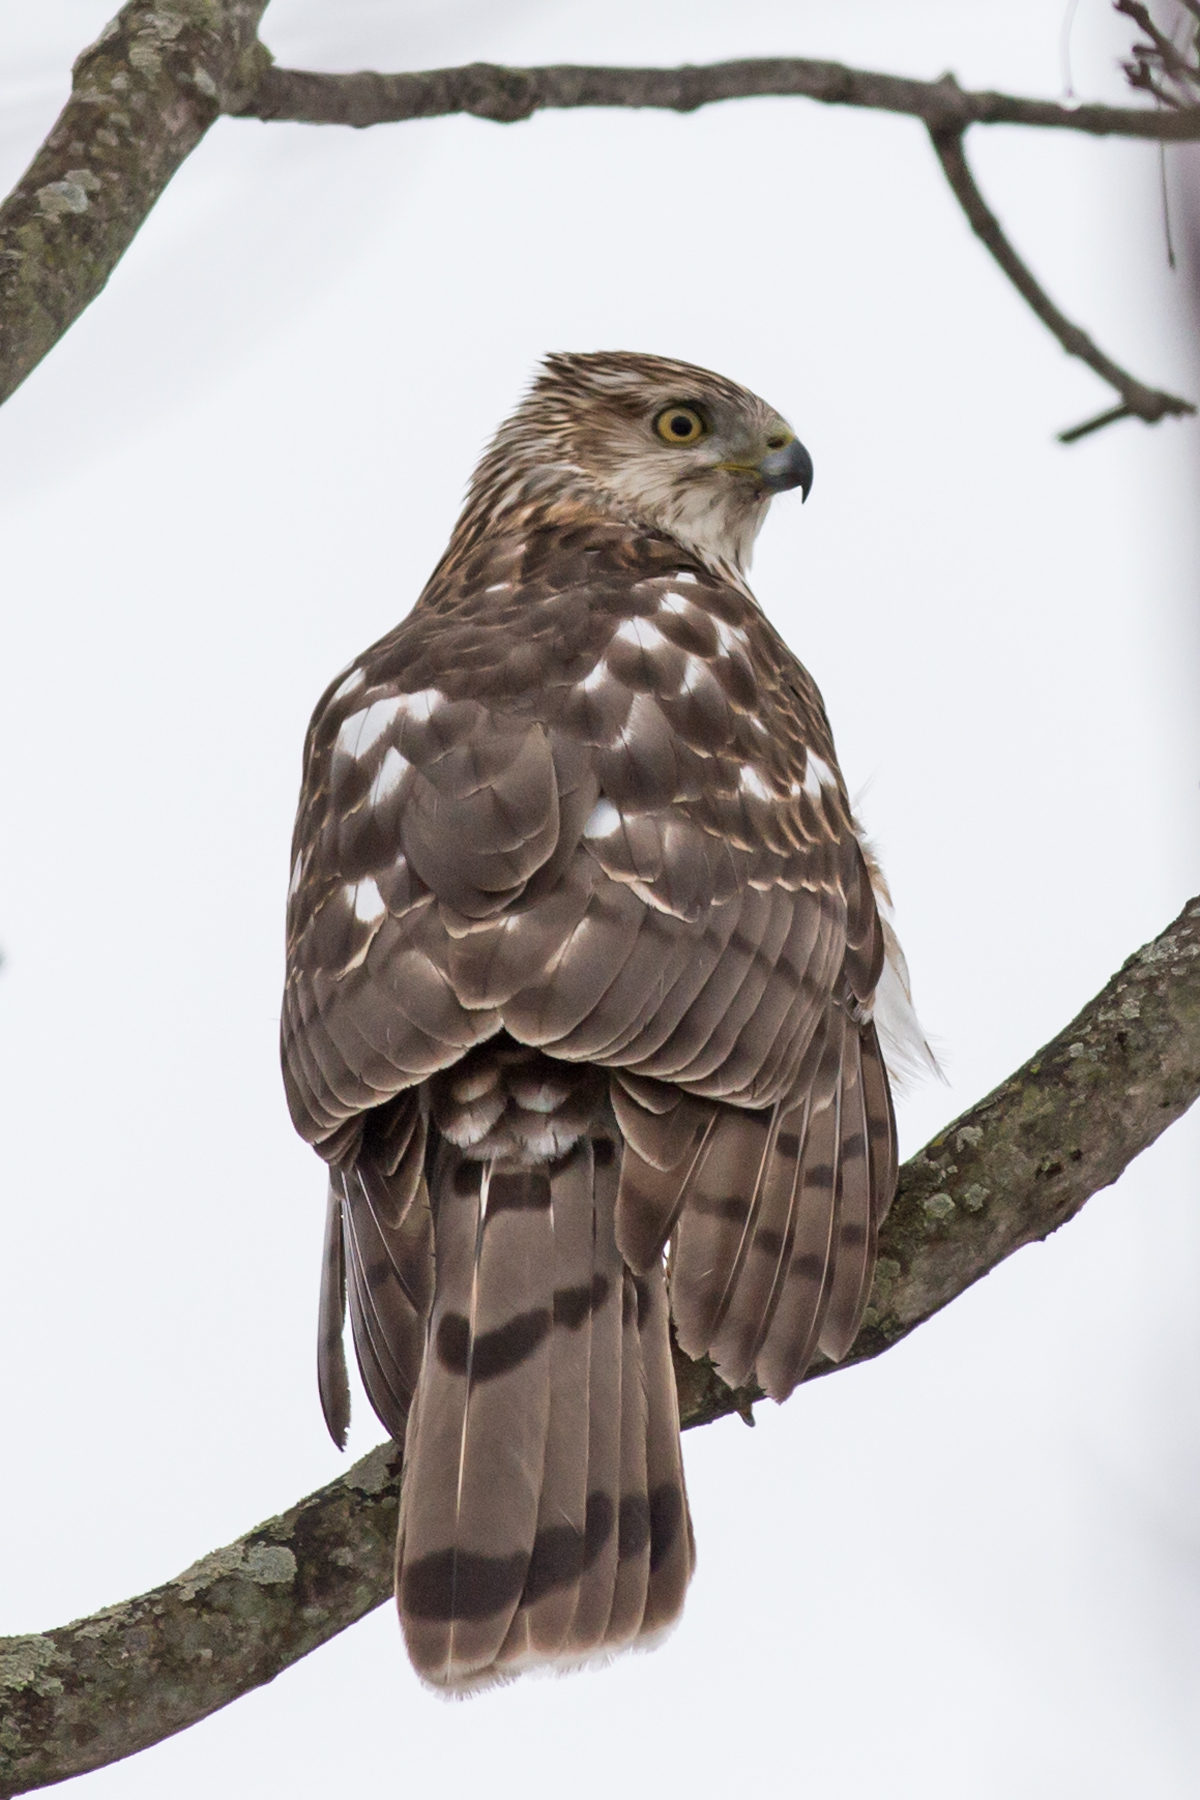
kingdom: Animalia
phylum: Chordata
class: Aves
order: Accipitriformes
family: Accipitridae
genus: Accipiter
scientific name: Accipiter cooperii
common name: Cooper's hawk
